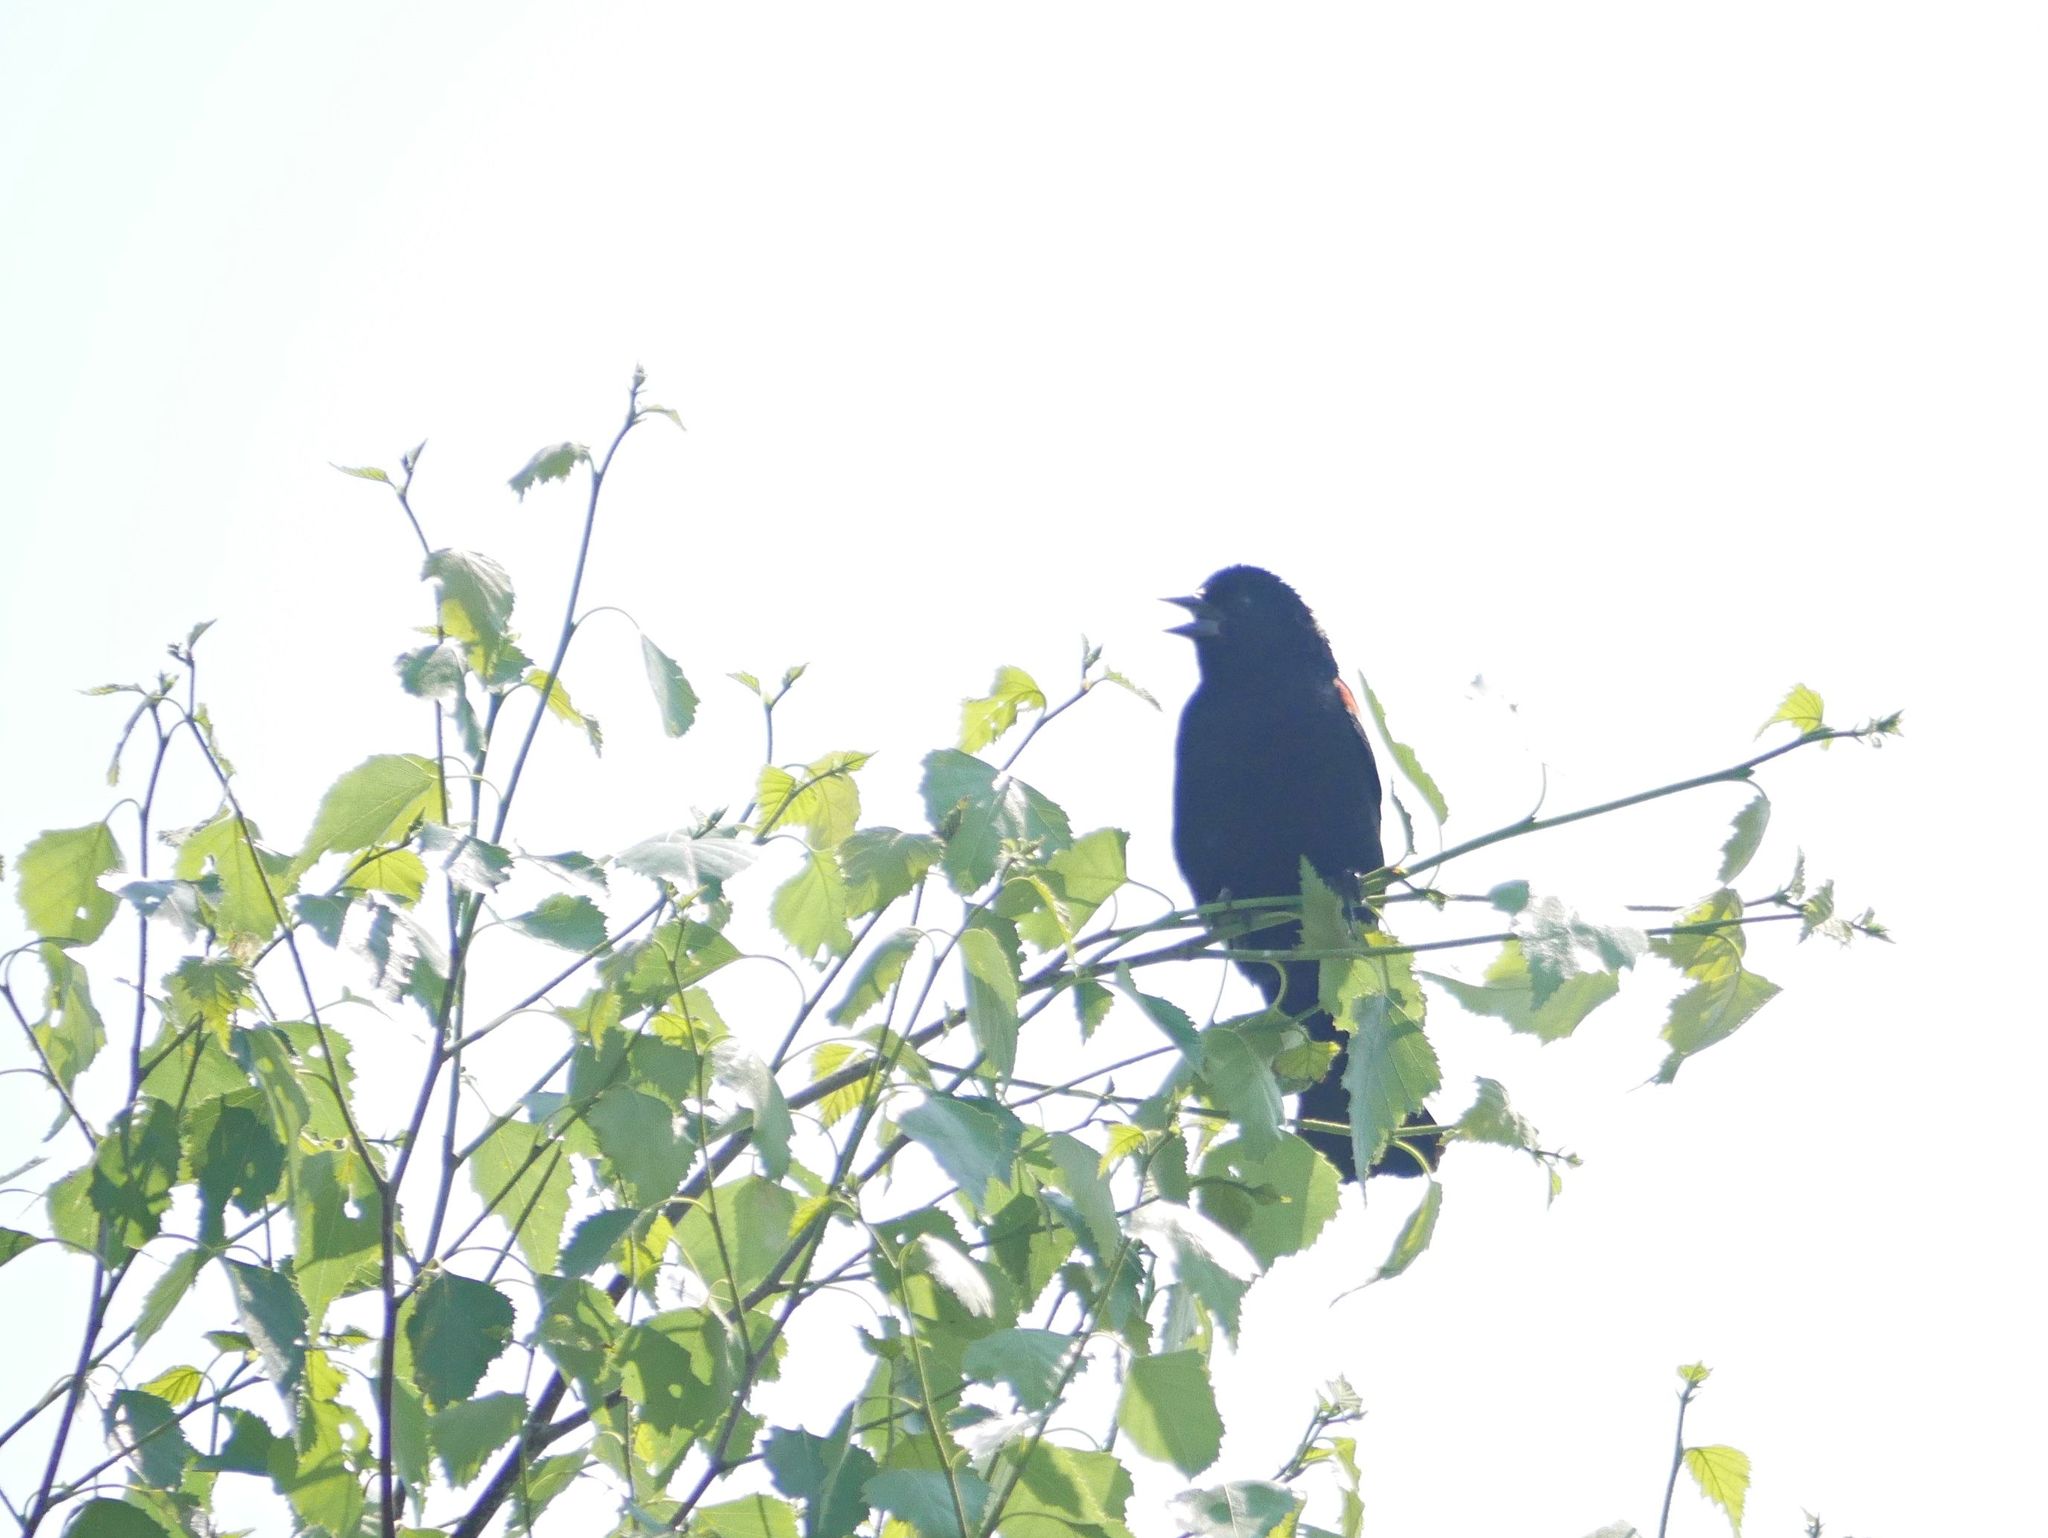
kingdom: Animalia
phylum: Chordata
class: Aves
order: Passeriformes
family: Icteridae
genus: Agelaius
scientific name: Agelaius phoeniceus
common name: Red-winged blackbird
